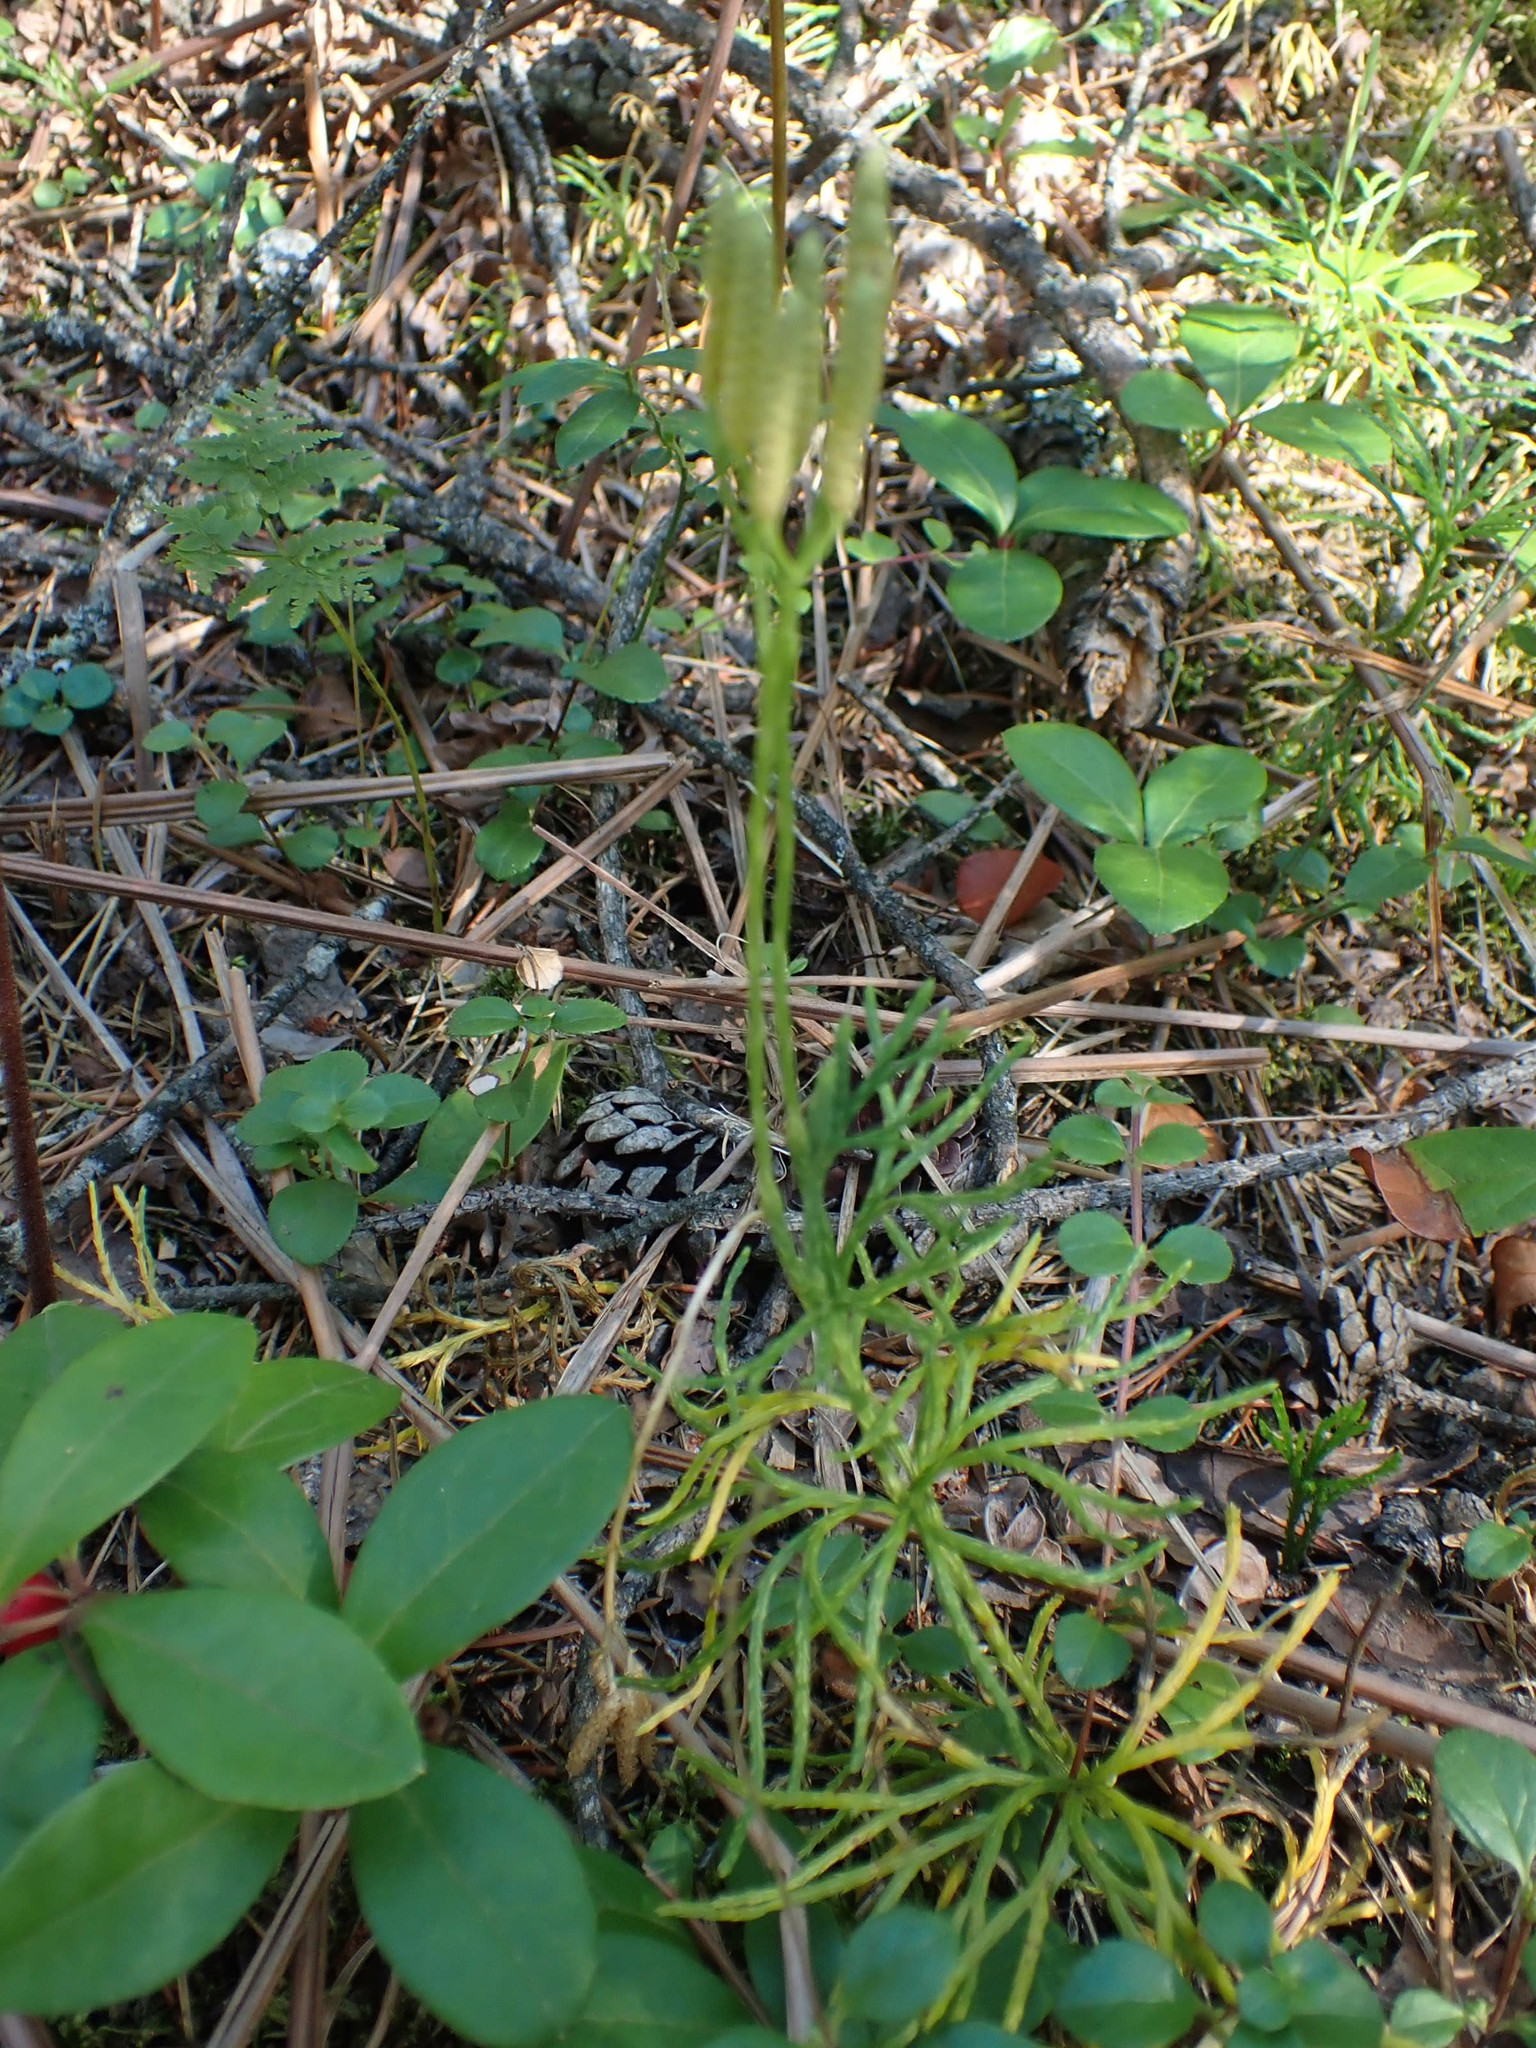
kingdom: Plantae
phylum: Tracheophyta
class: Lycopodiopsida
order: Lycopodiales
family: Lycopodiaceae
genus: Diphasiastrum
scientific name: Diphasiastrum complanatum
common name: Northern running-pine
